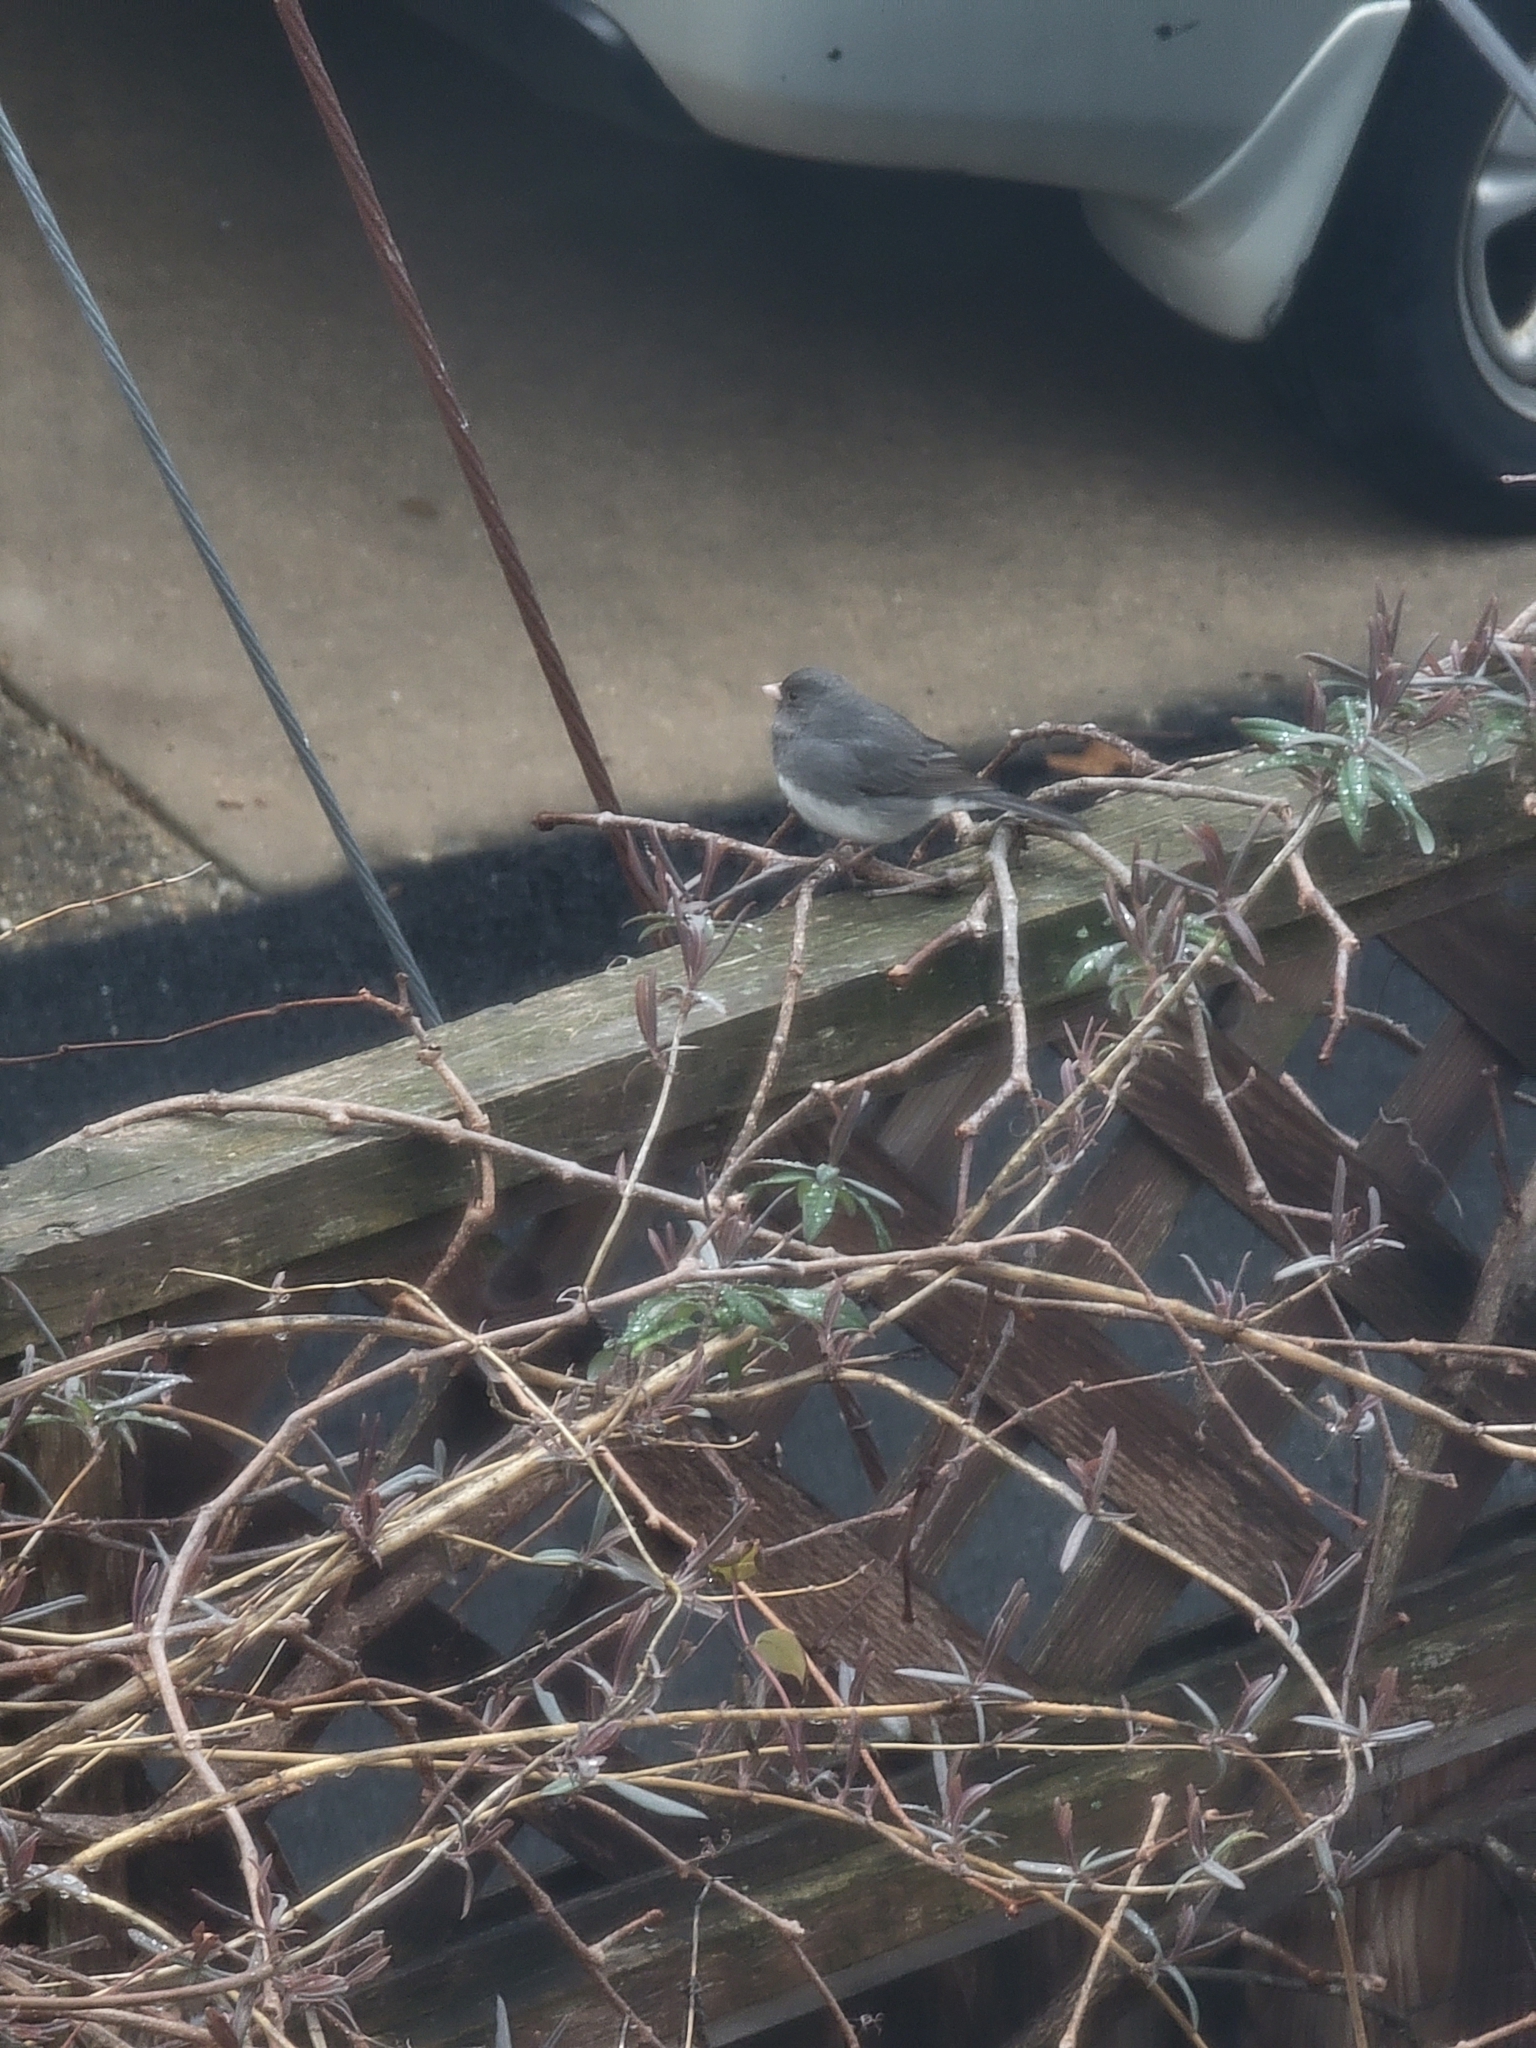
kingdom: Animalia
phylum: Chordata
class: Aves
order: Passeriformes
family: Passerellidae
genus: Junco
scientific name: Junco hyemalis
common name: Dark-eyed junco
